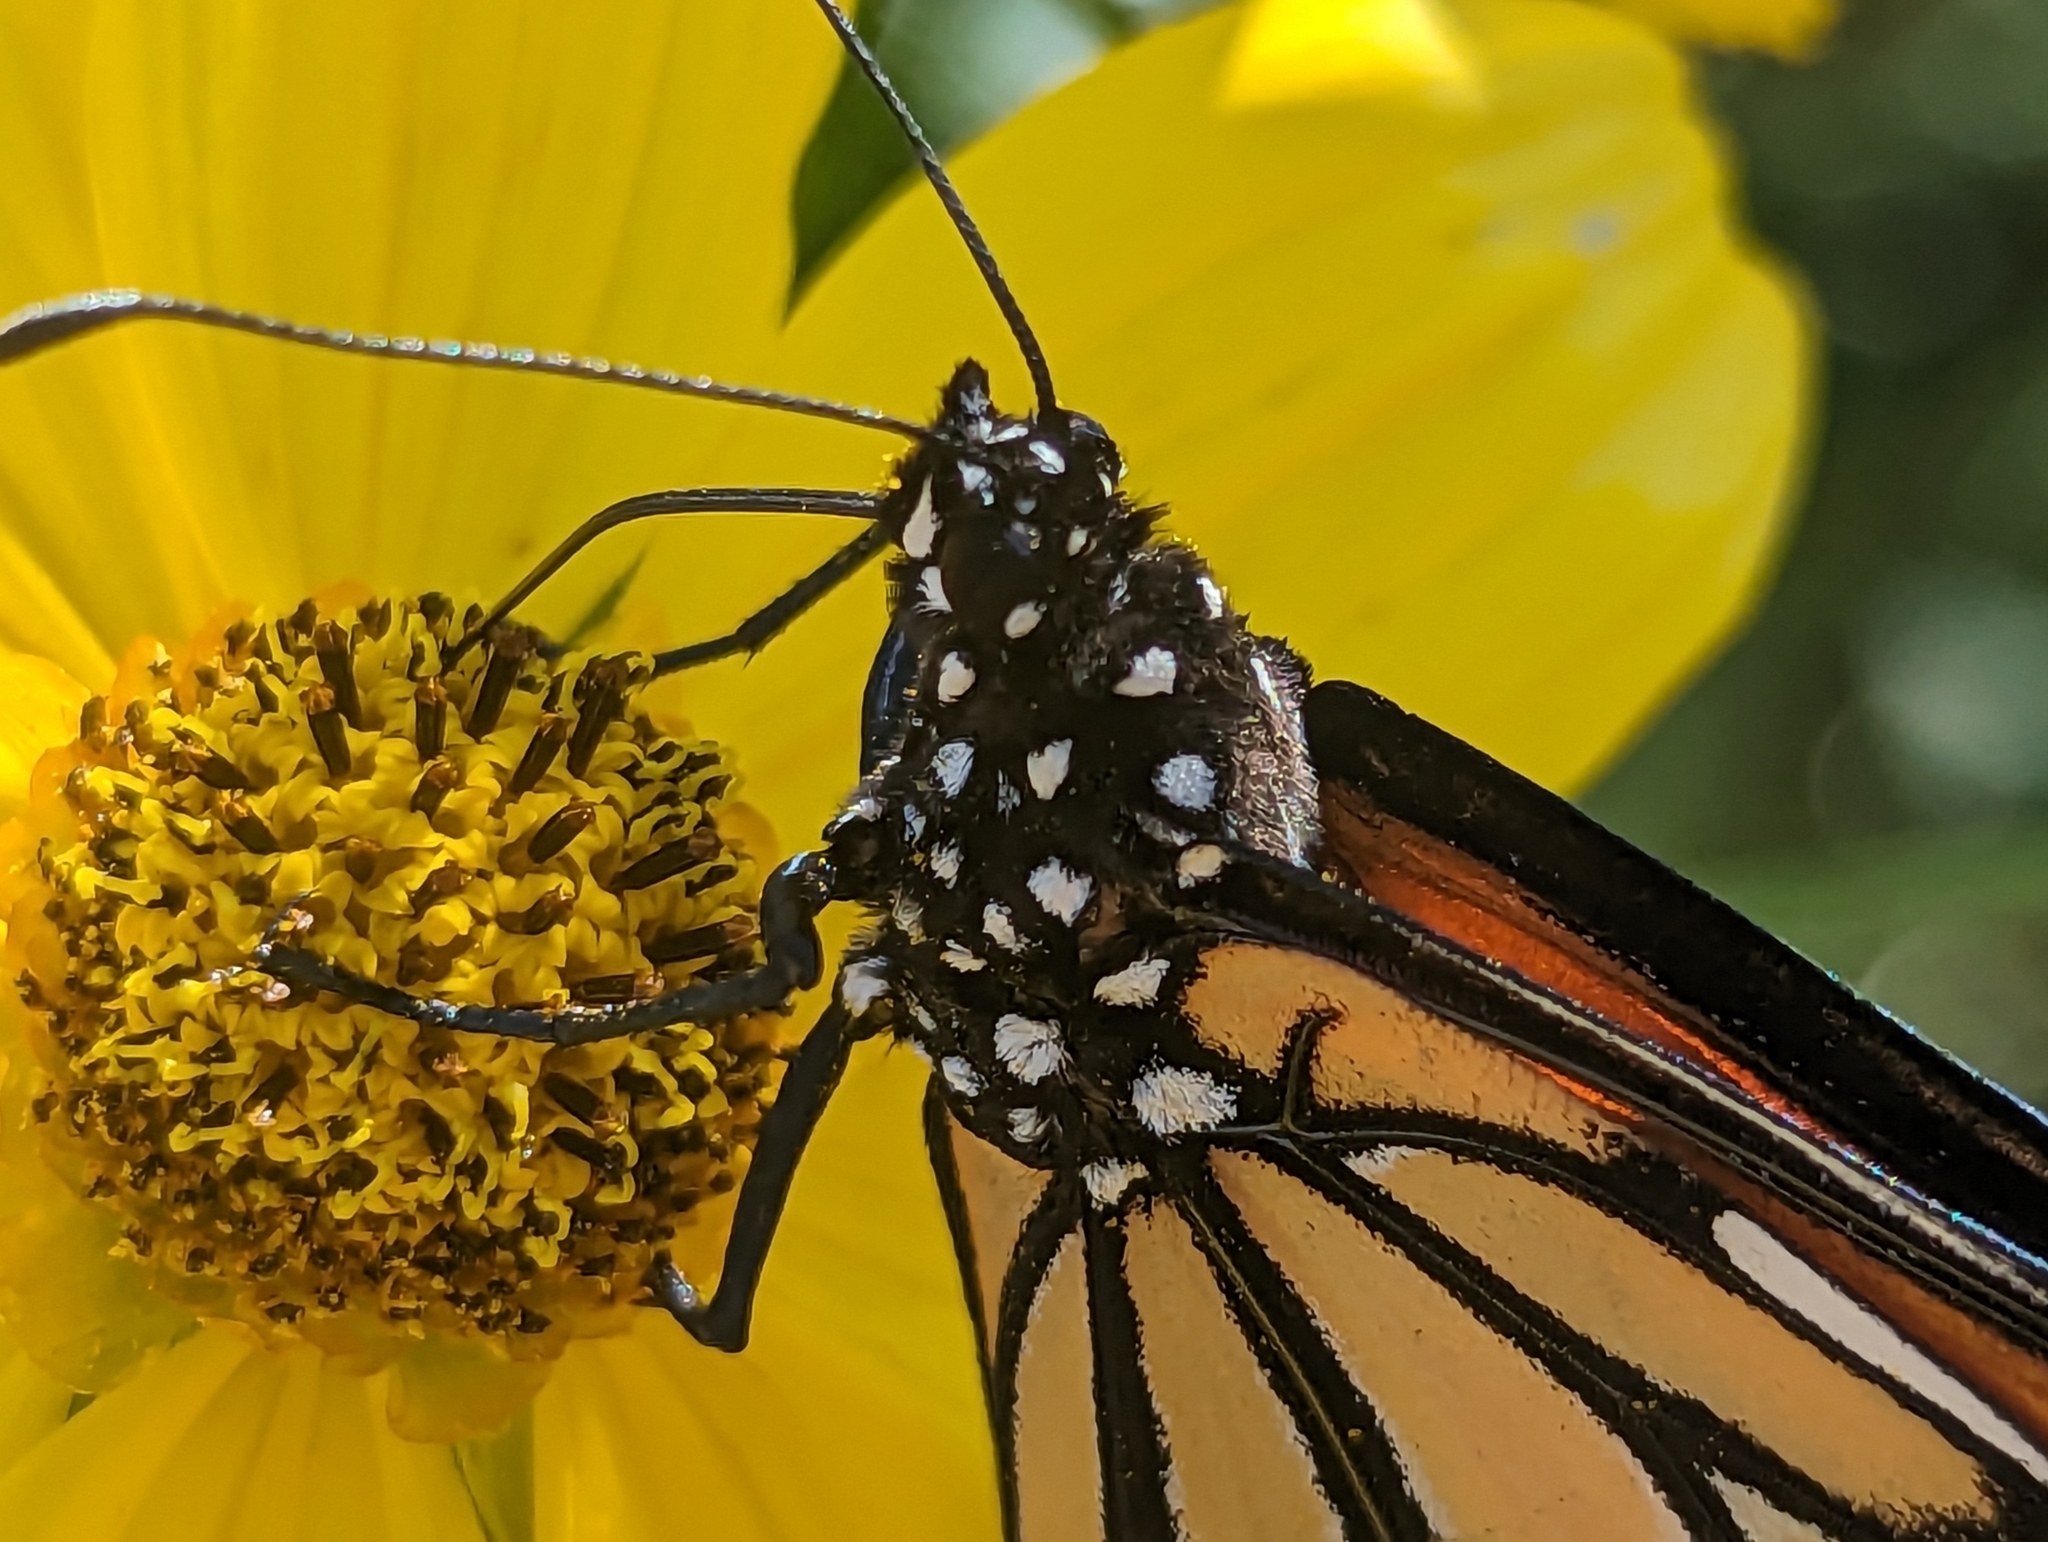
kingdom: Animalia
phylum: Arthropoda
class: Insecta
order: Lepidoptera
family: Nymphalidae
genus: Danaus
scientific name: Danaus plexippus
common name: Monarch
